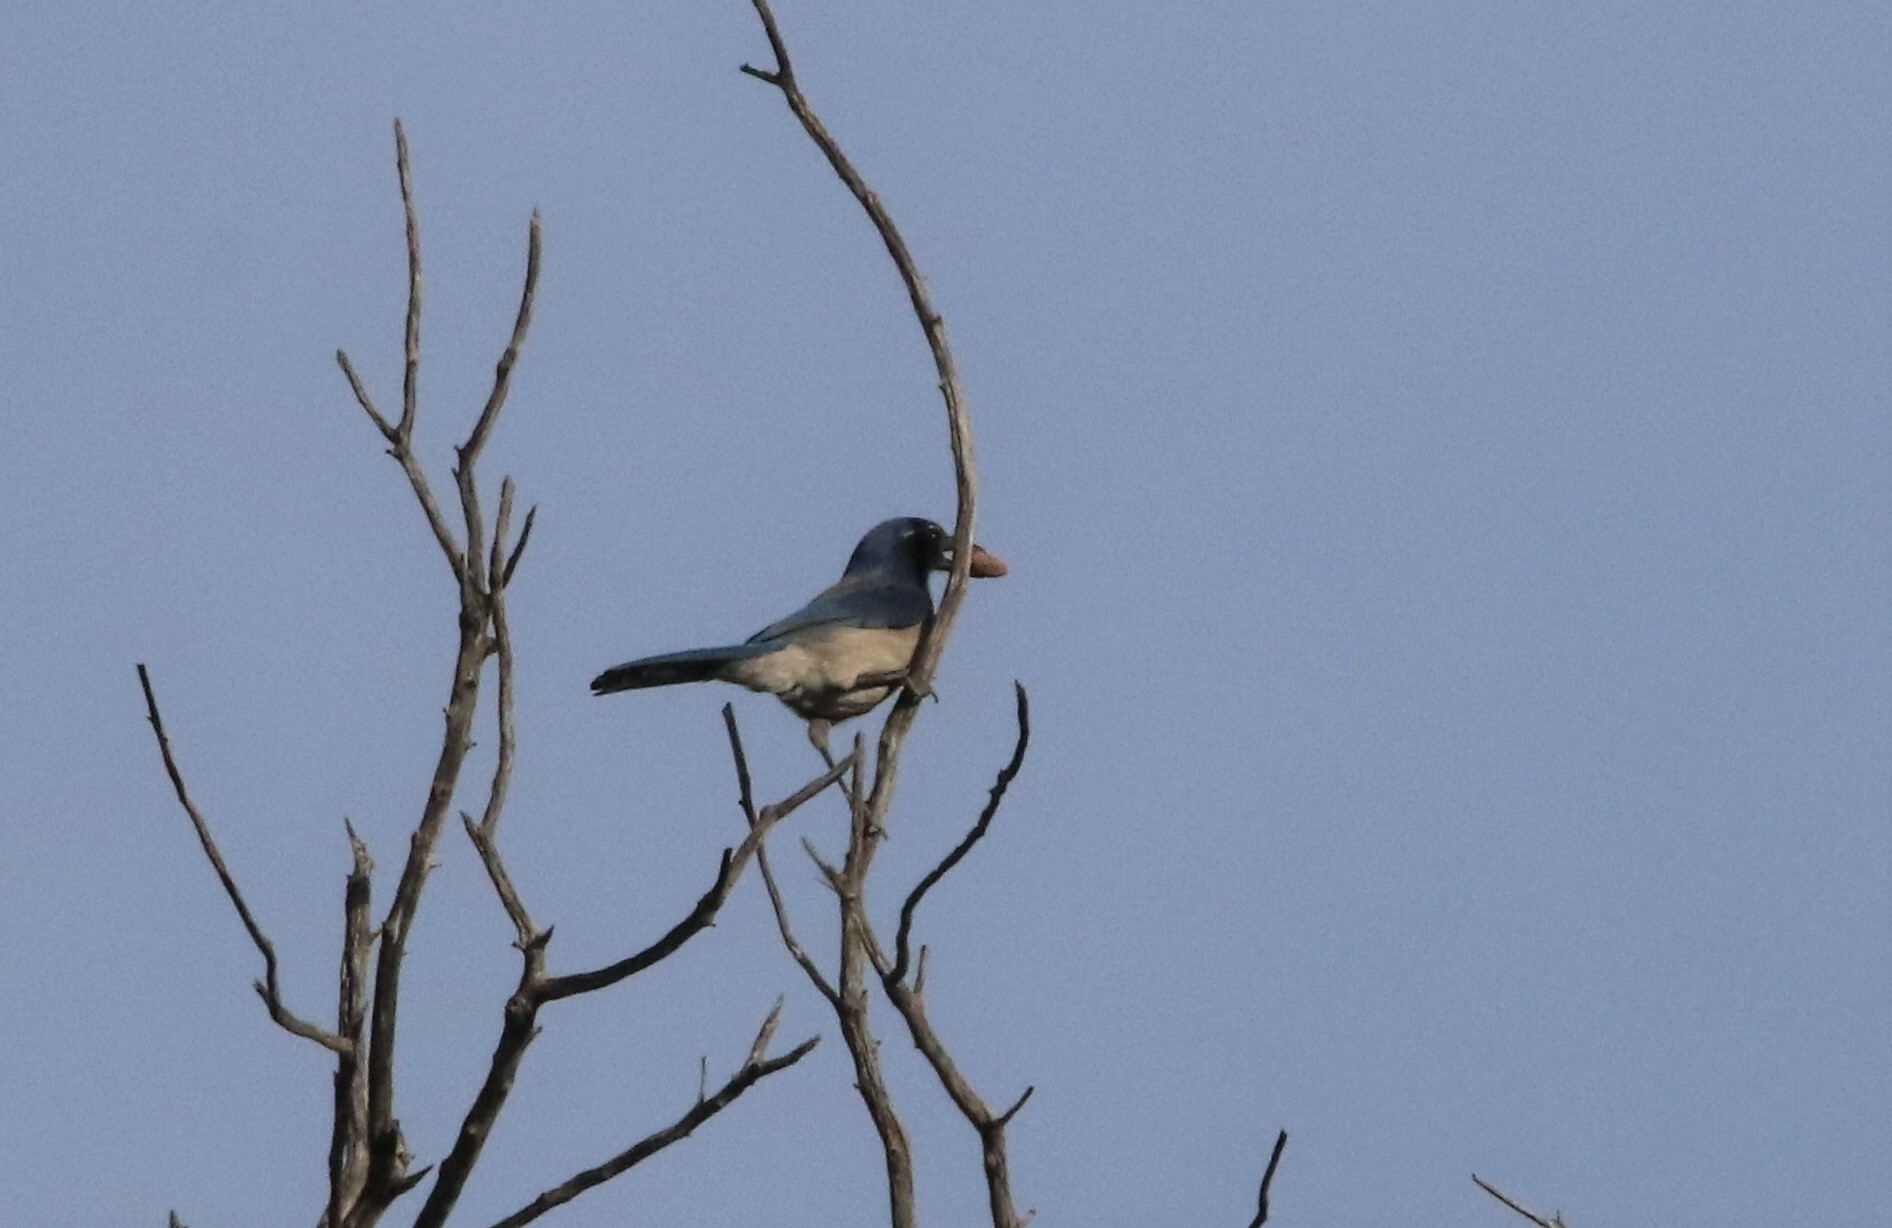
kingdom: Animalia
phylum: Chordata
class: Aves
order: Passeriformes
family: Corvidae
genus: Aphelocoma
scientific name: Aphelocoma californica
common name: California scrub-jay
